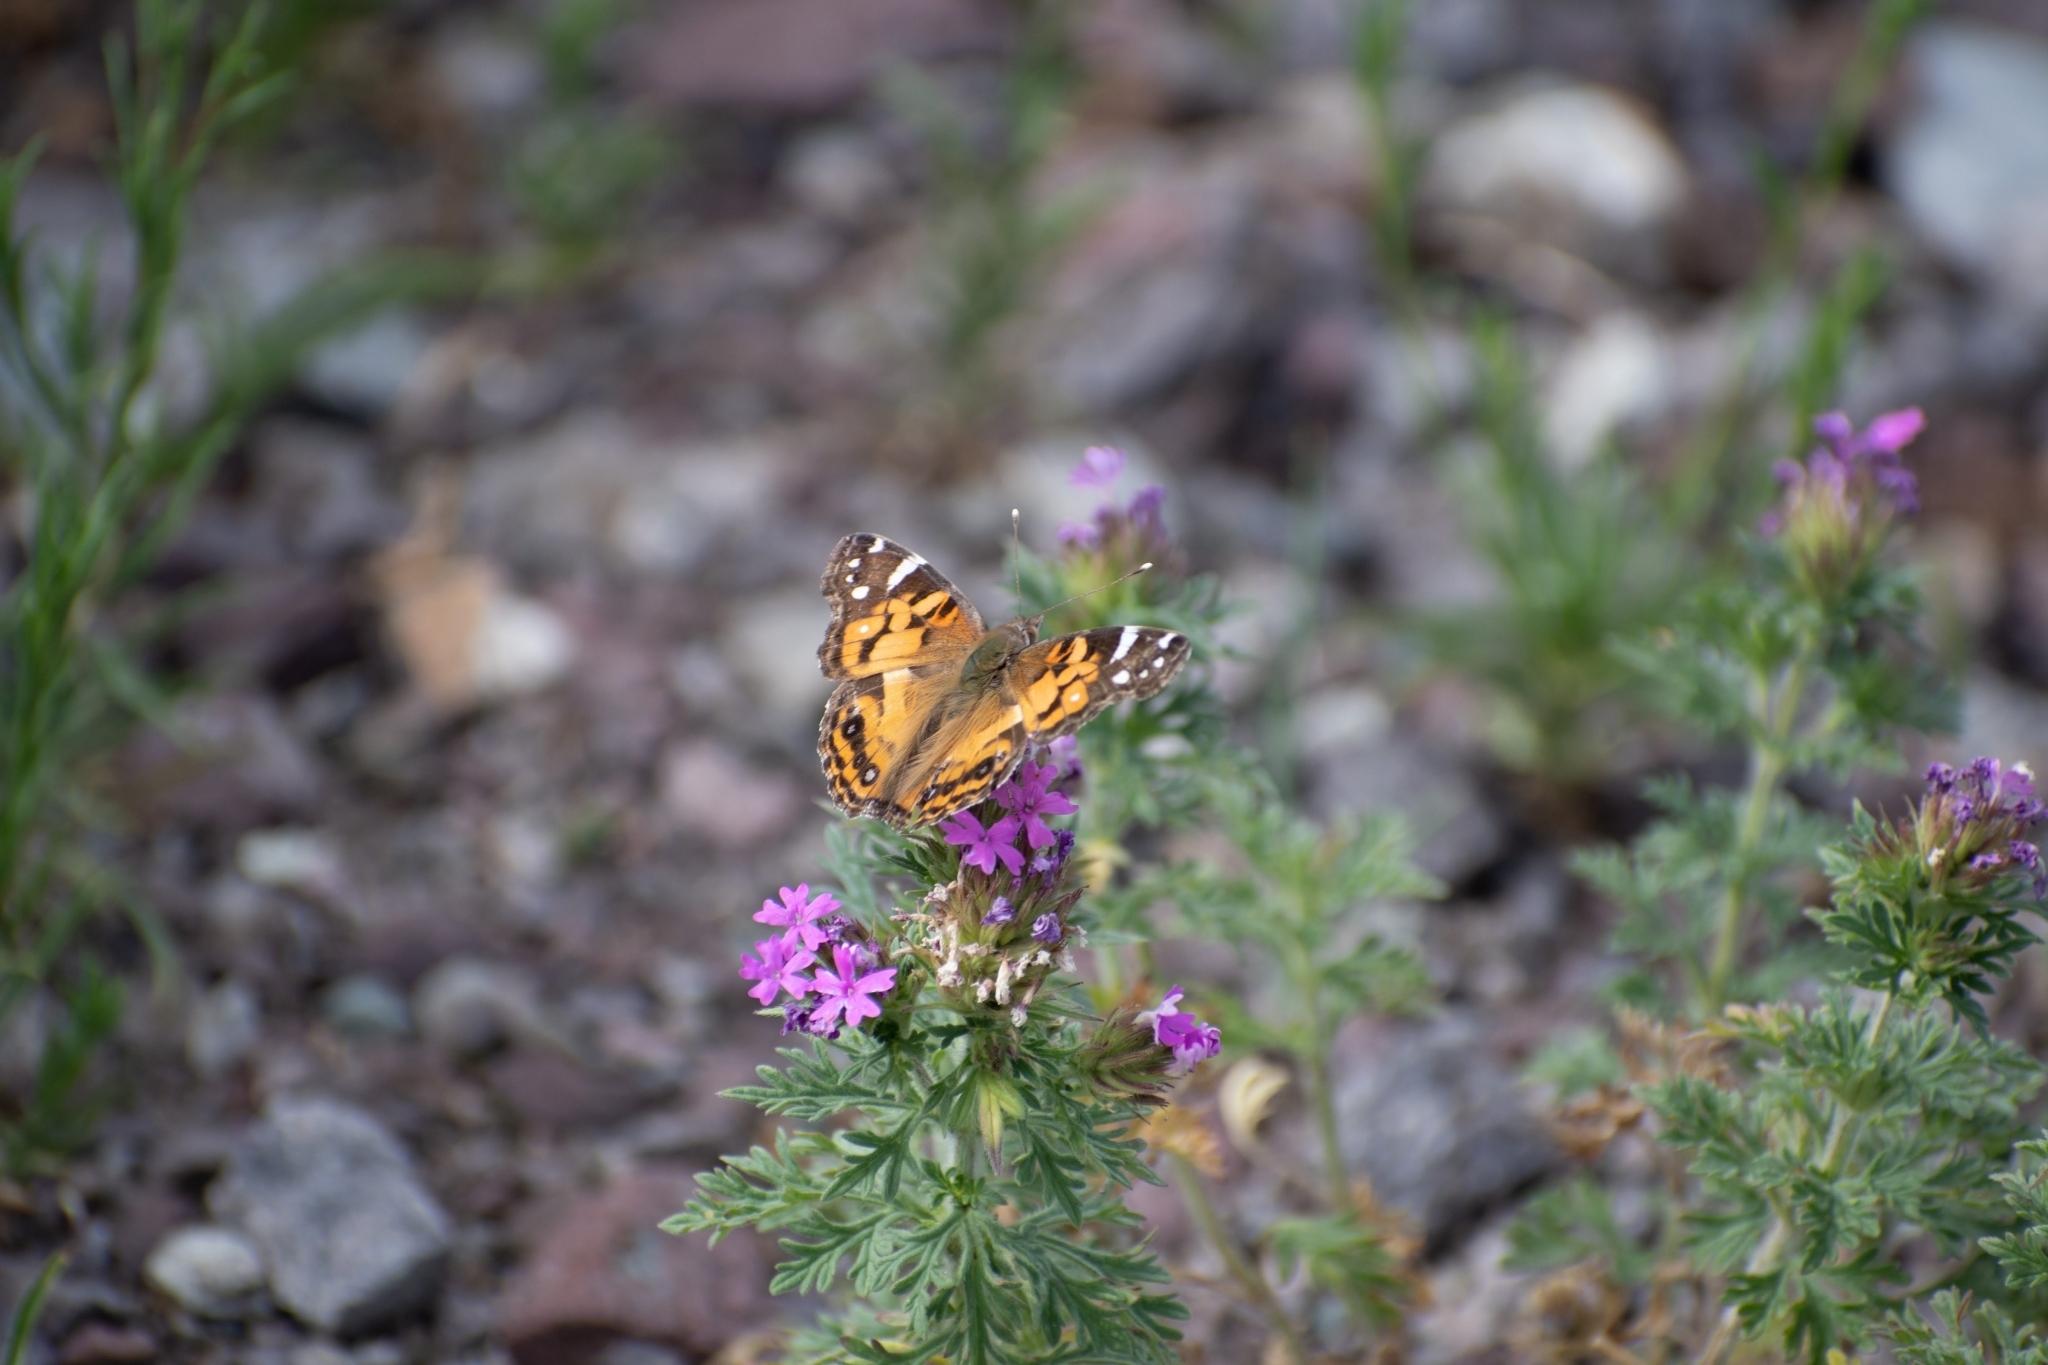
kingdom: Animalia
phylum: Arthropoda
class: Insecta
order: Lepidoptera
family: Nymphalidae
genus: Vanessa
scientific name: Vanessa virginiensis
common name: American lady
